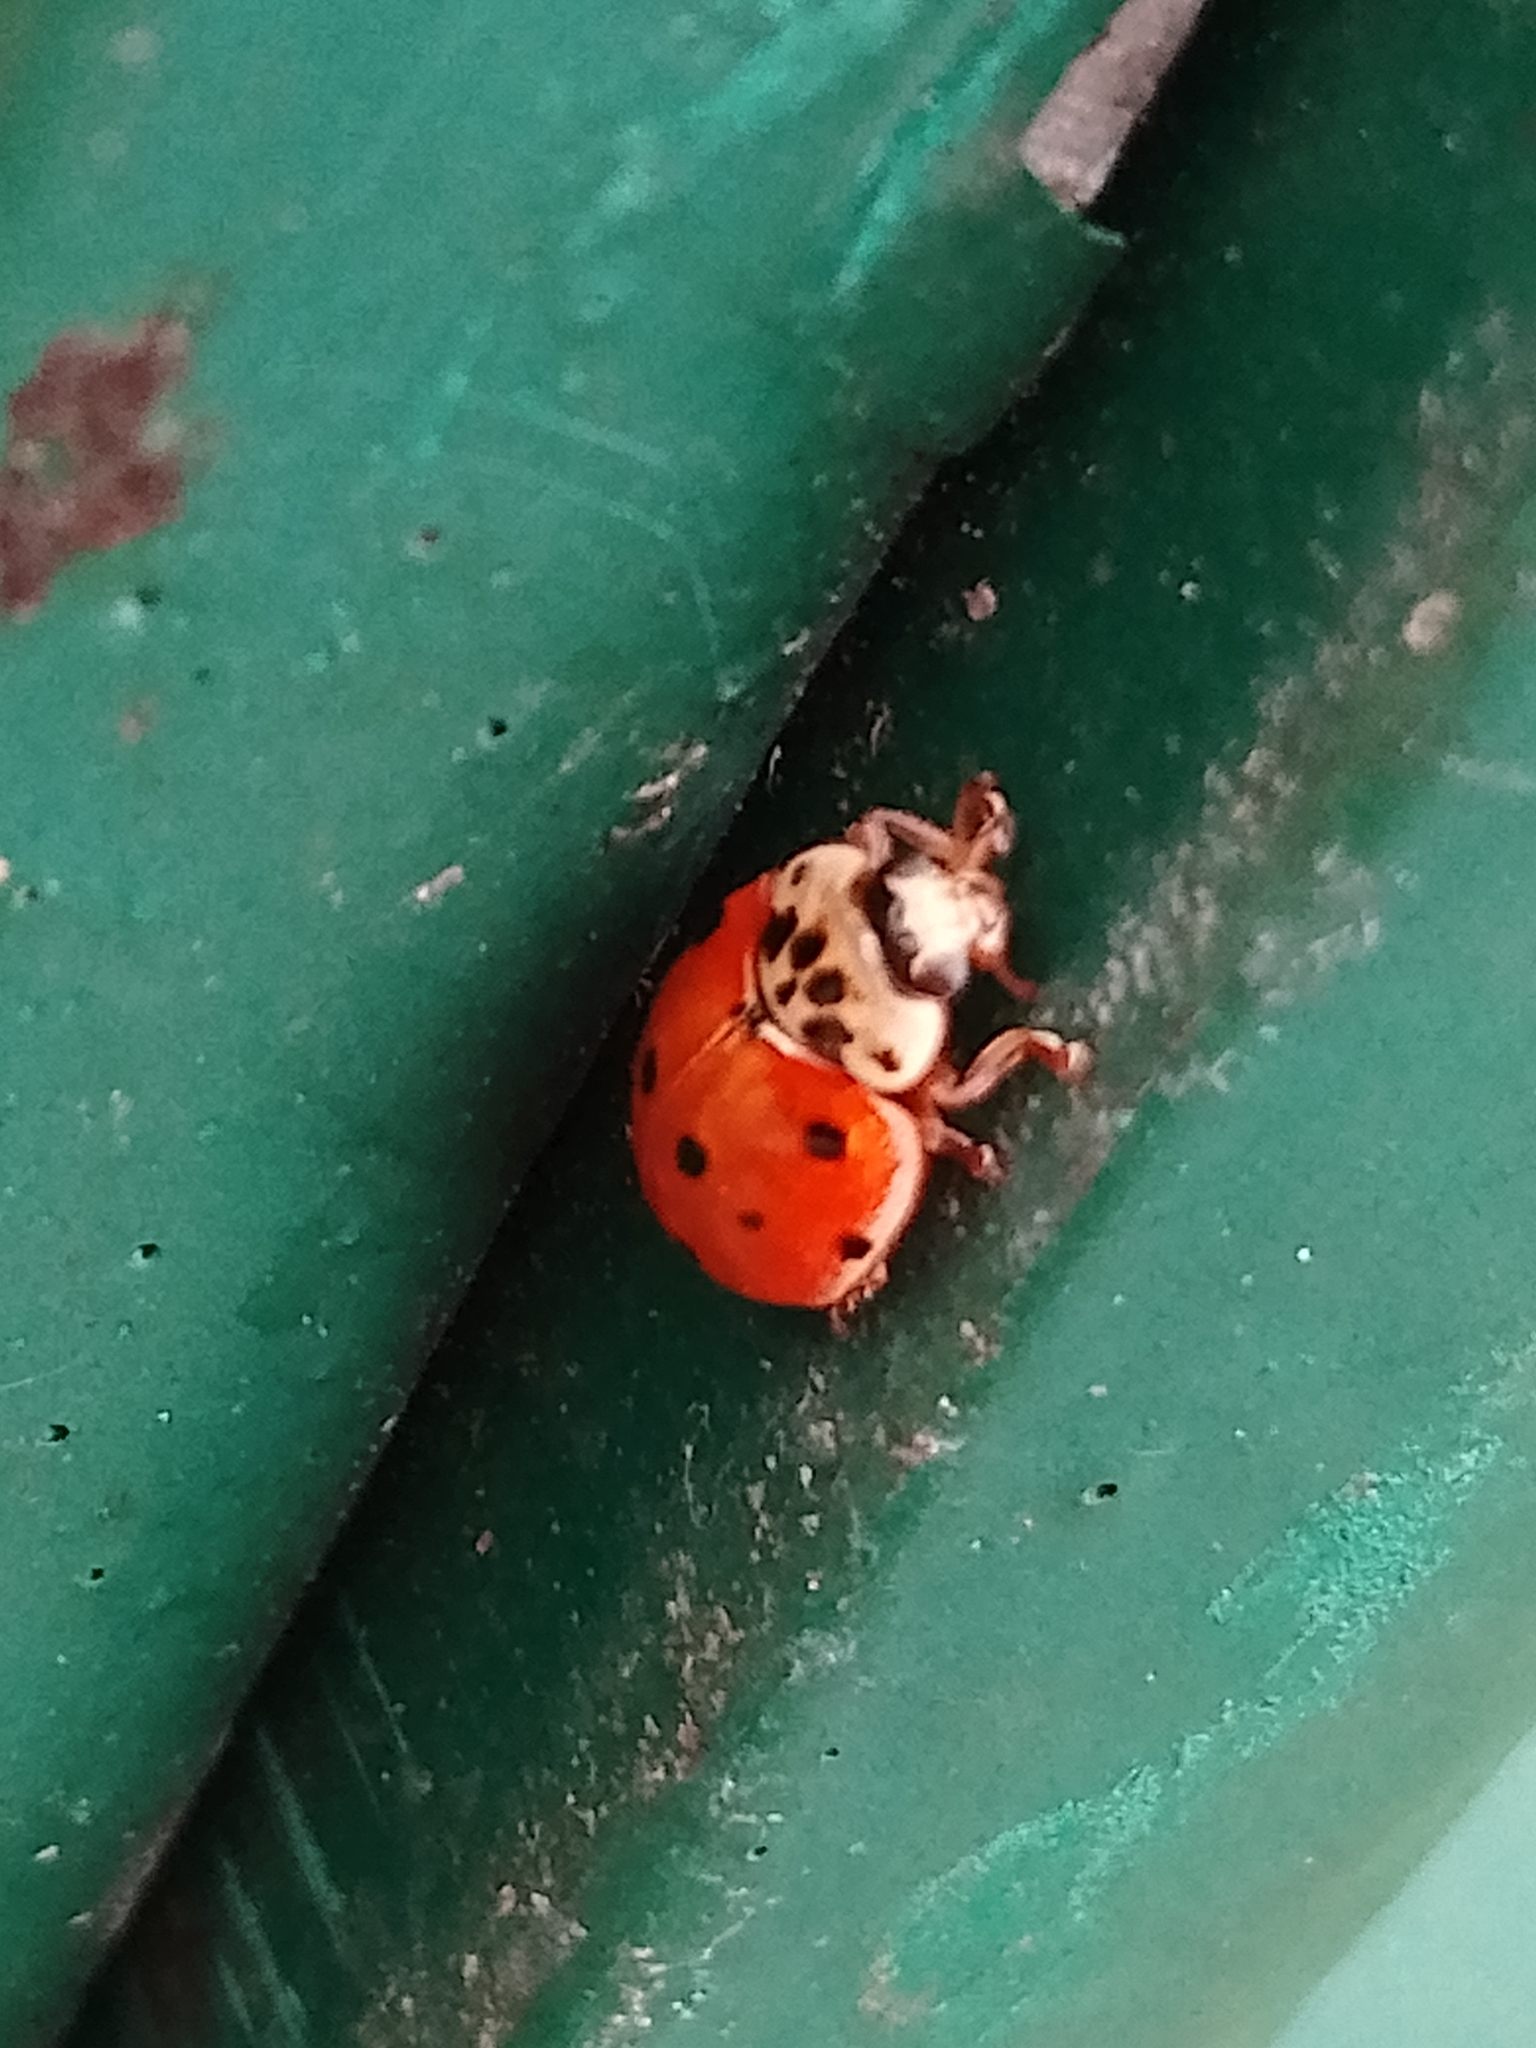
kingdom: Animalia
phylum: Arthropoda
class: Insecta
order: Coleoptera
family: Coccinellidae
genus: Adalia
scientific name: Adalia decempunctata
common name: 10-spot ladybird
